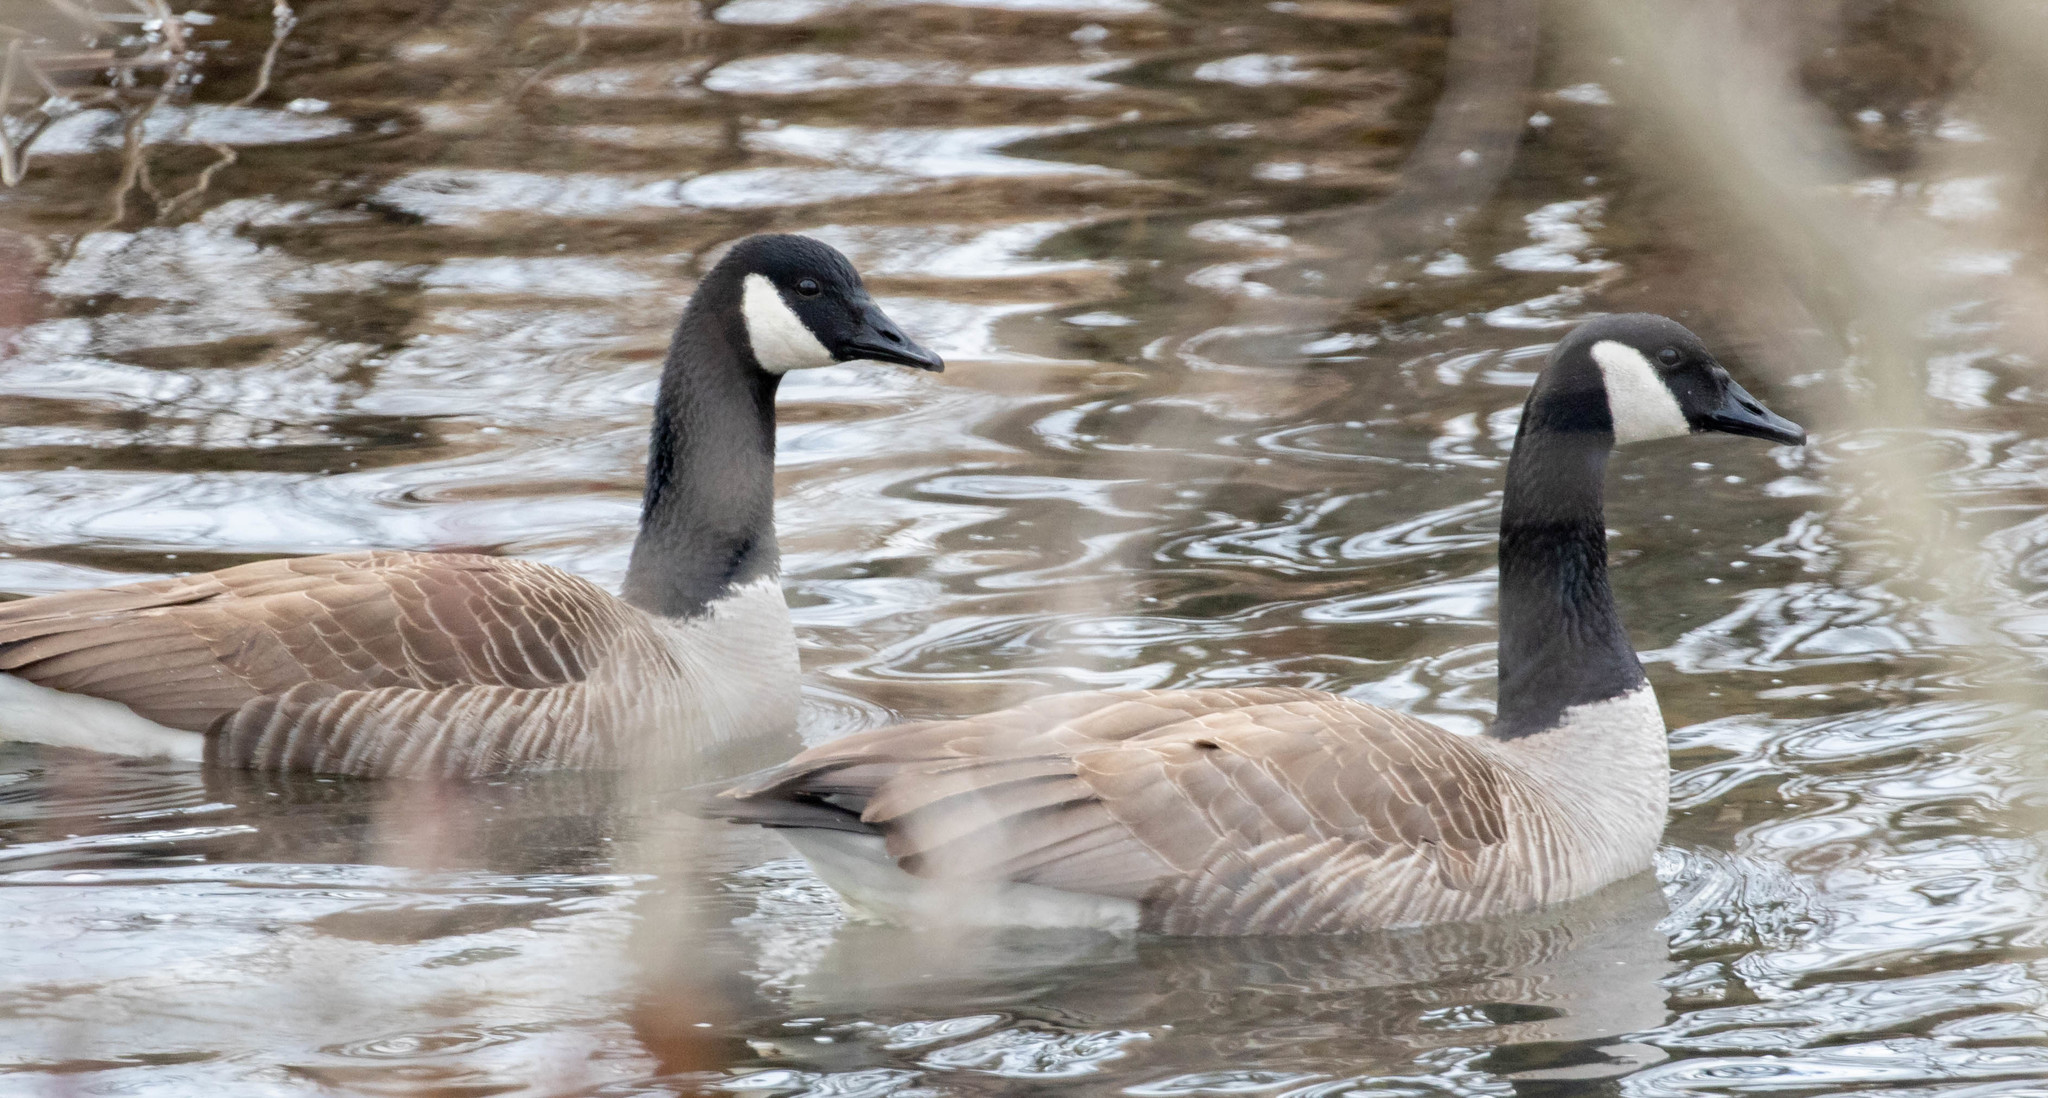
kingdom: Animalia
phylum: Chordata
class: Aves
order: Anseriformes
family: Anatidae
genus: Branta
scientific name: Branta canadensis
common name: Canada goose
